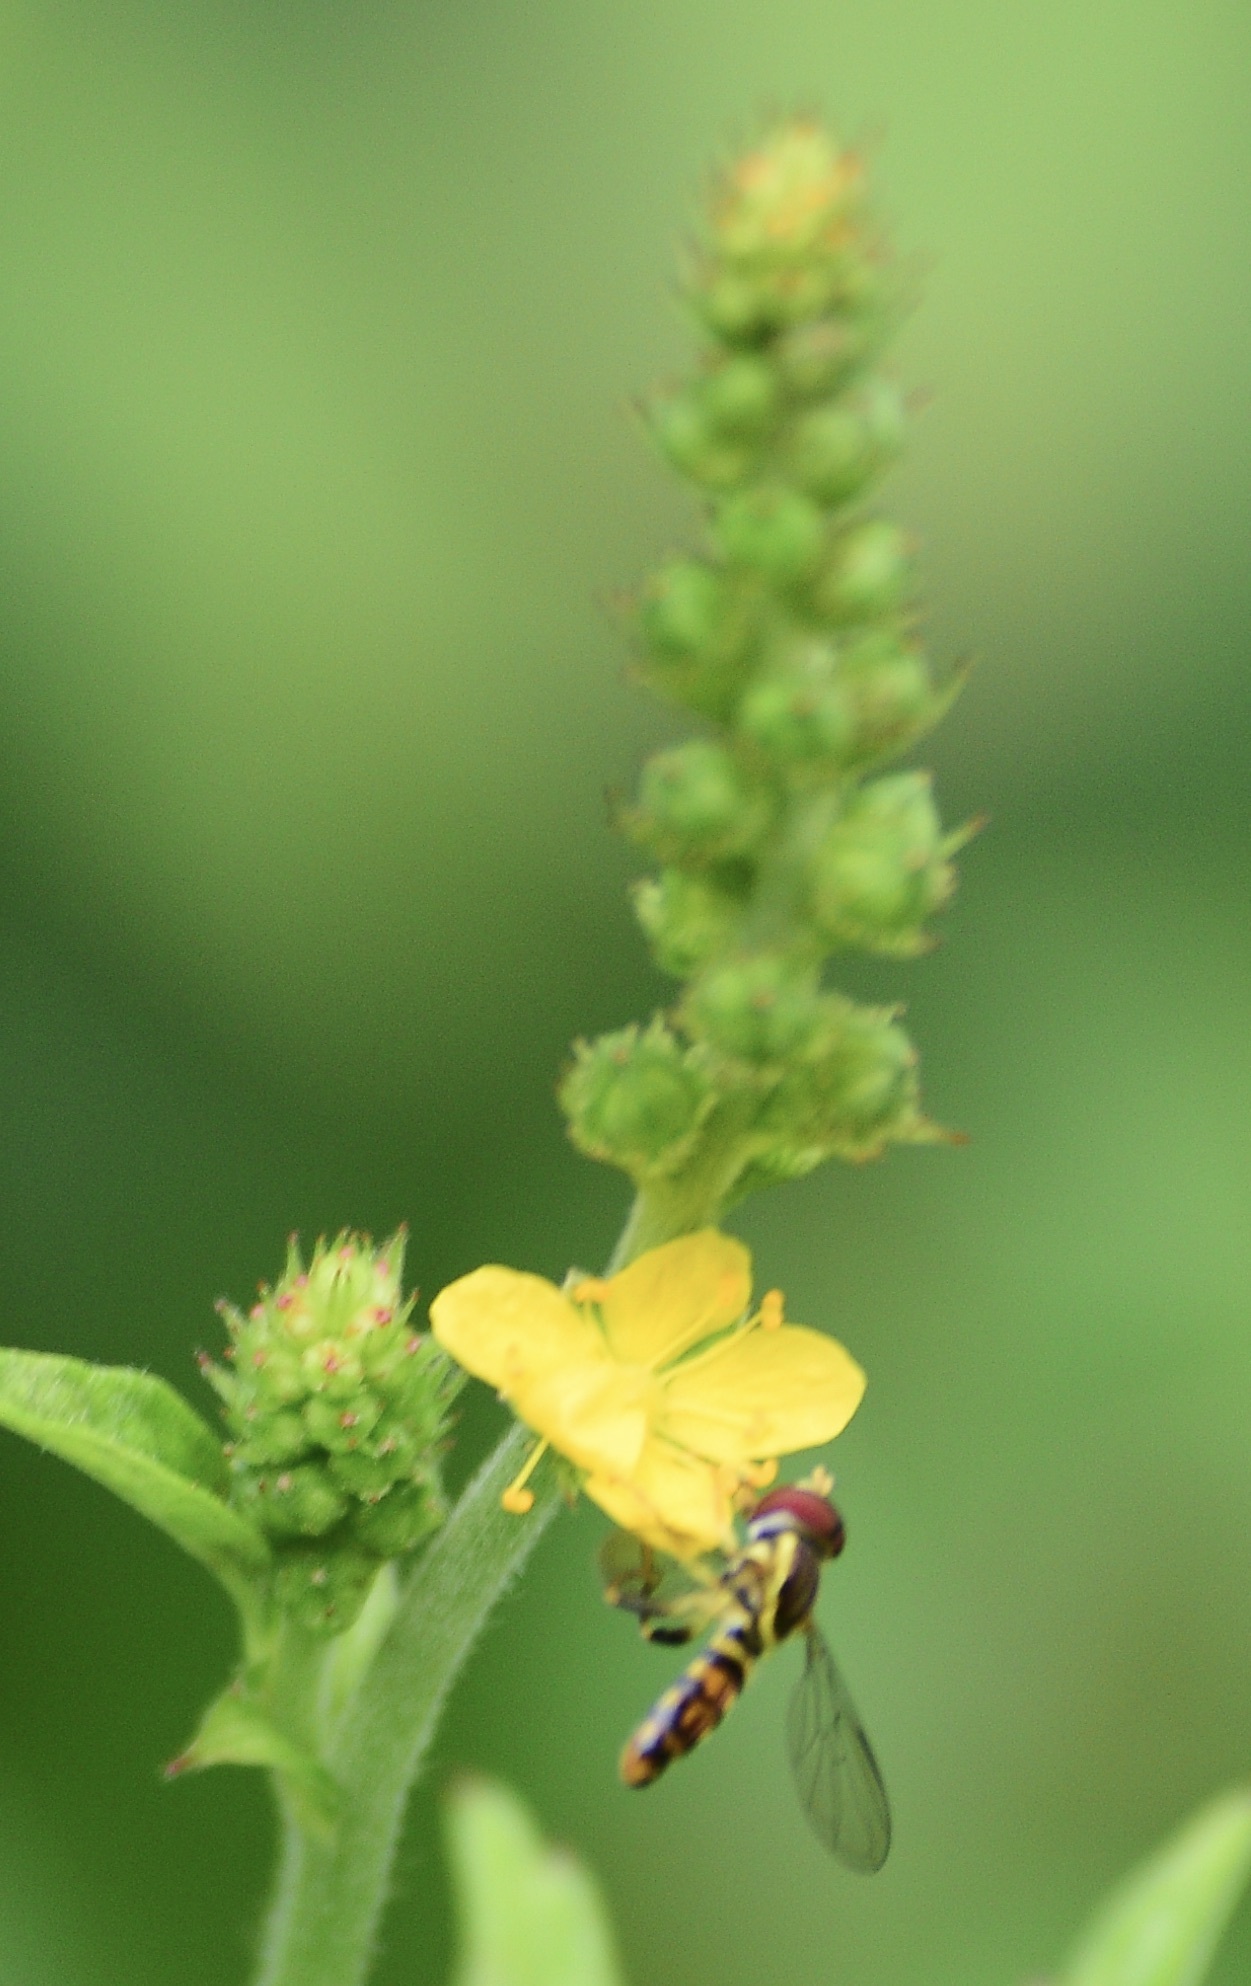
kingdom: Animalia
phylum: Arthropoda
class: Insecta
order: Diptera
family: Syrphidae
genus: Toxomerus
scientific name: Toxomerus geminatus
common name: Eastern calligrapher
